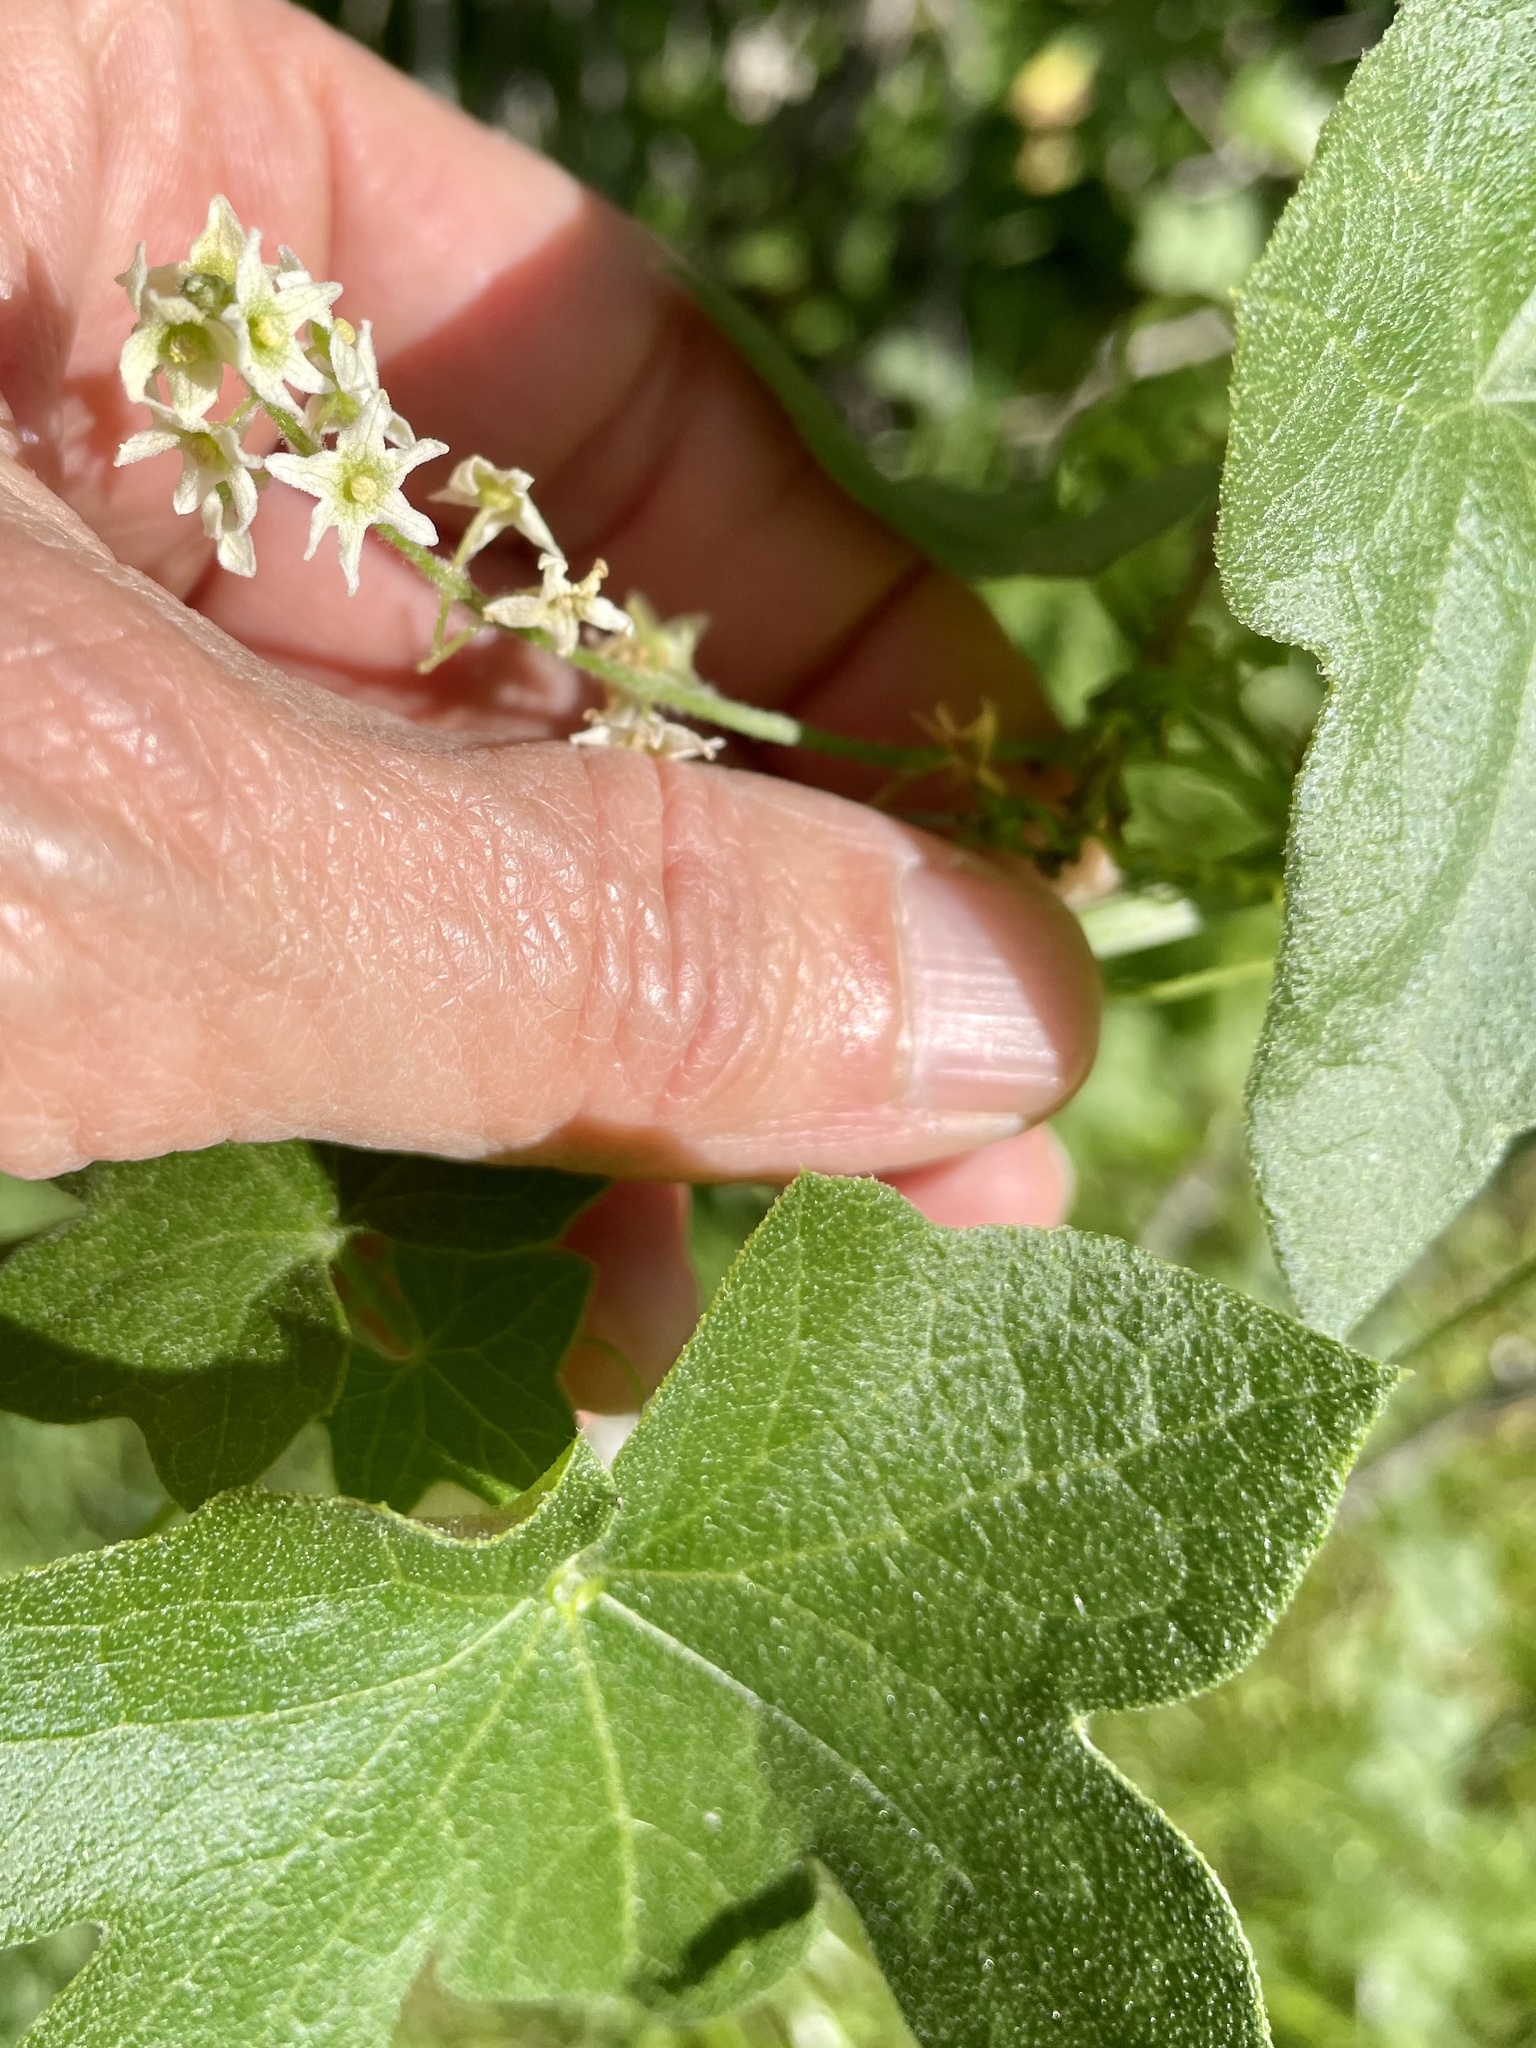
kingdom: Plantae
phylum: Tracheophyta
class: Magnoliopsida
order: Cucurbitales
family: Cucurbitaceae
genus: Marah
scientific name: Marah fabacea
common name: California manroot
